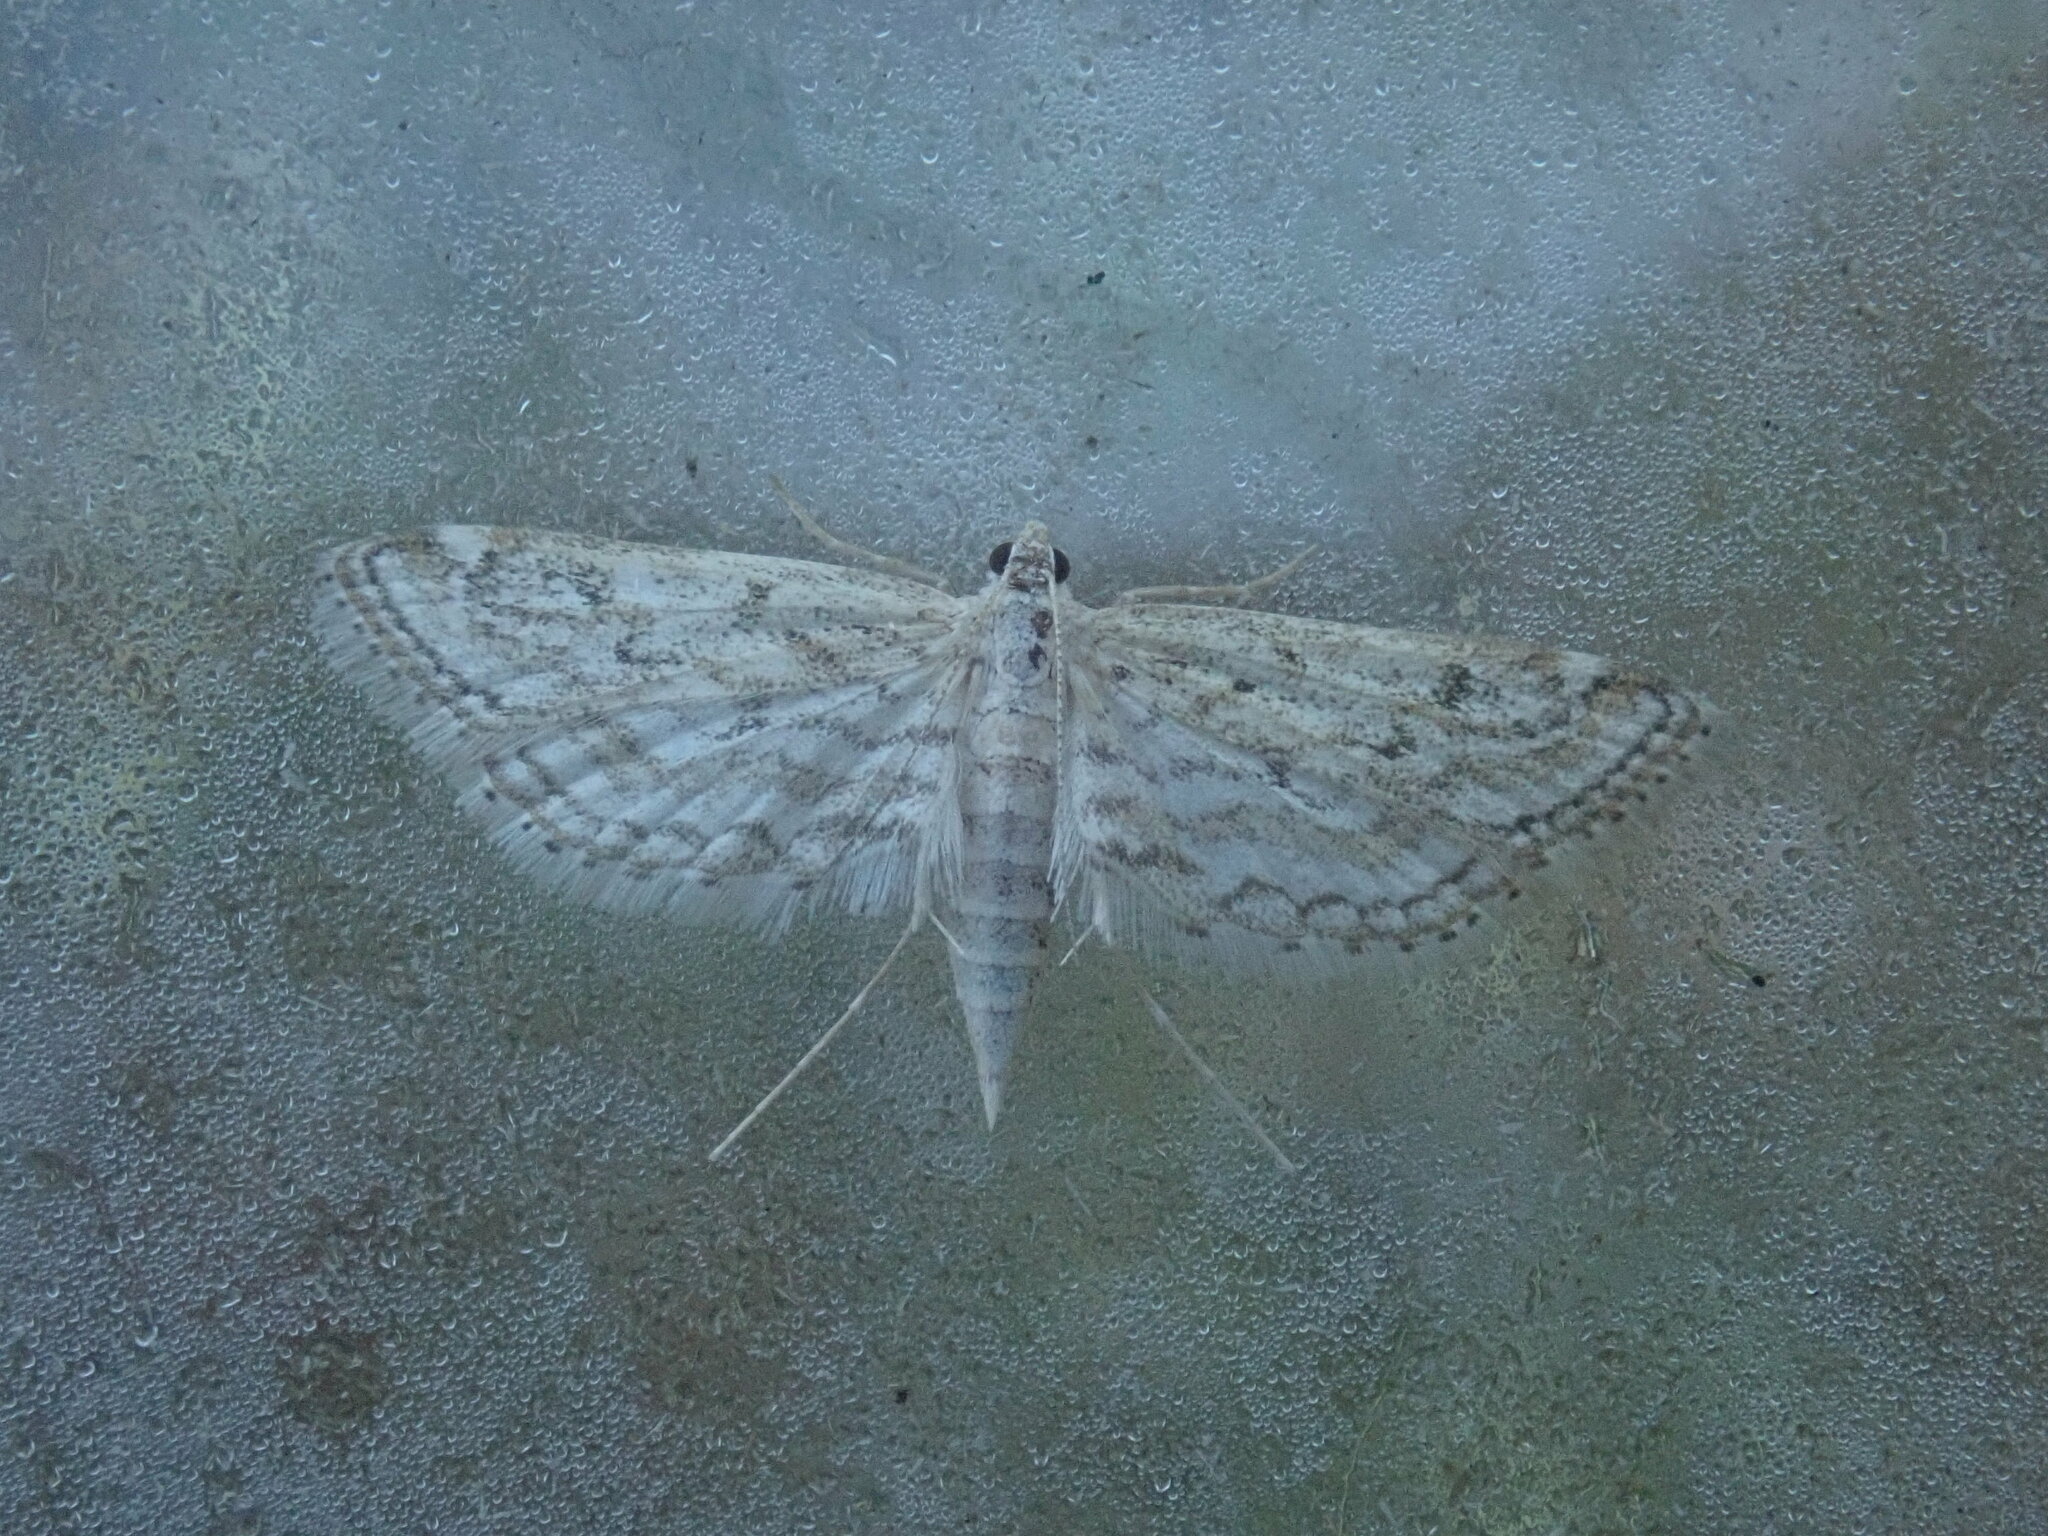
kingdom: Animalia
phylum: Arthropoda
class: Insecta
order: Lepidoptera
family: Crambidae
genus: Parapoynx
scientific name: Parapoynx allionealis
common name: Bladderwort casemaker
